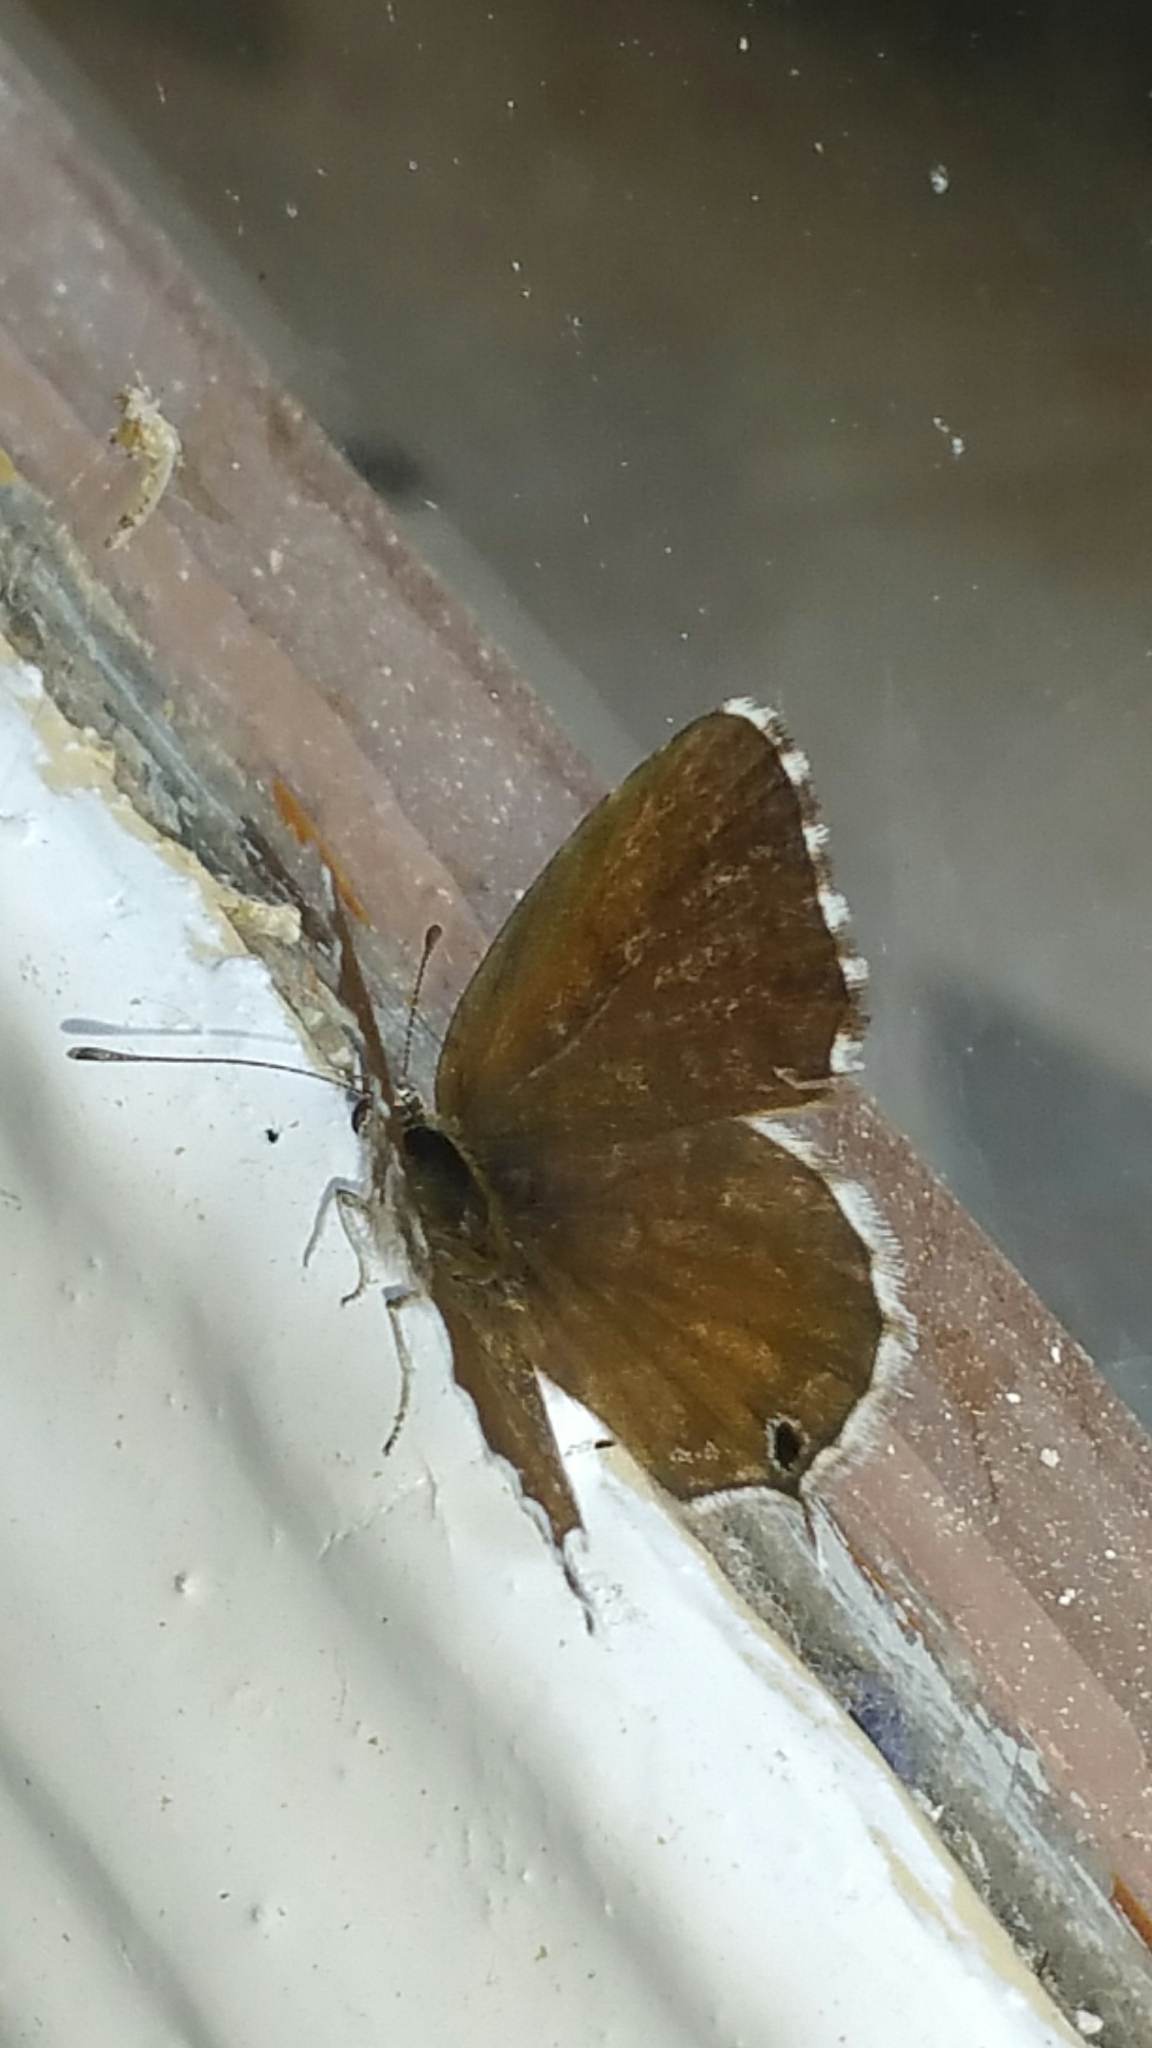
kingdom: Animalia
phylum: Arthropoda
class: Insecta
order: Lepidoptera
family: Lycaenidae
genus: Cacyreus
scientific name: Cacyreus marshalli
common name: Geranium bronze
